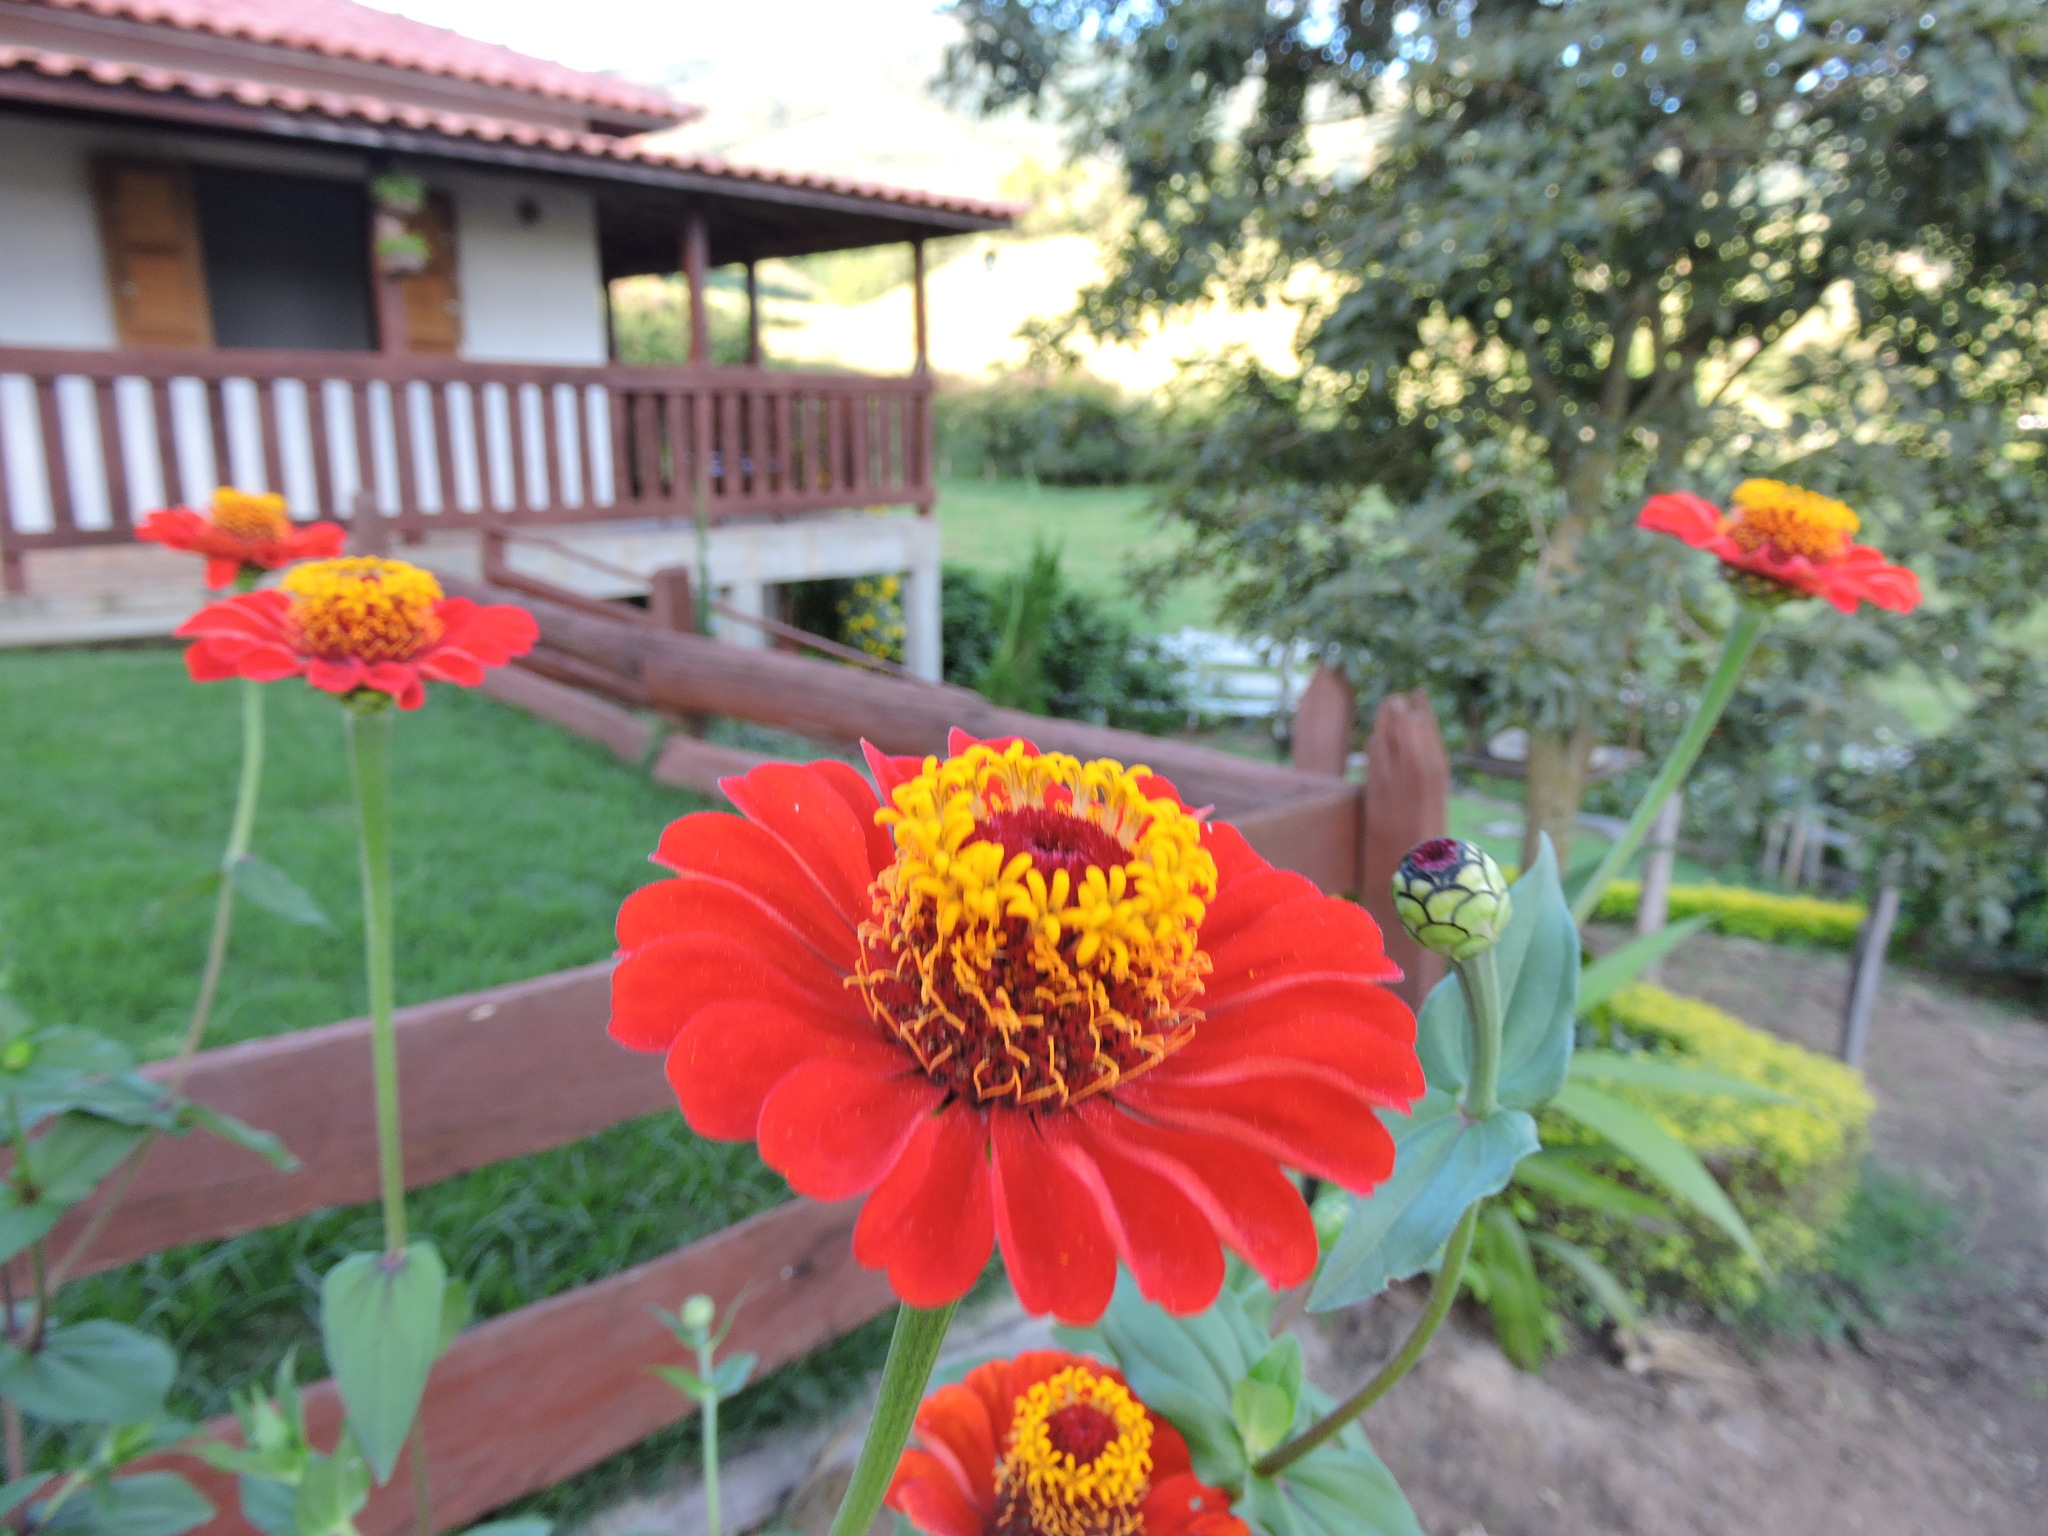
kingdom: Plantae
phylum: Tracheophyta
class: Magnoliopsida
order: Asterales
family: Asteraceae
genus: Zinnia
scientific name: Zinnia elegans
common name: Youth-and-age
